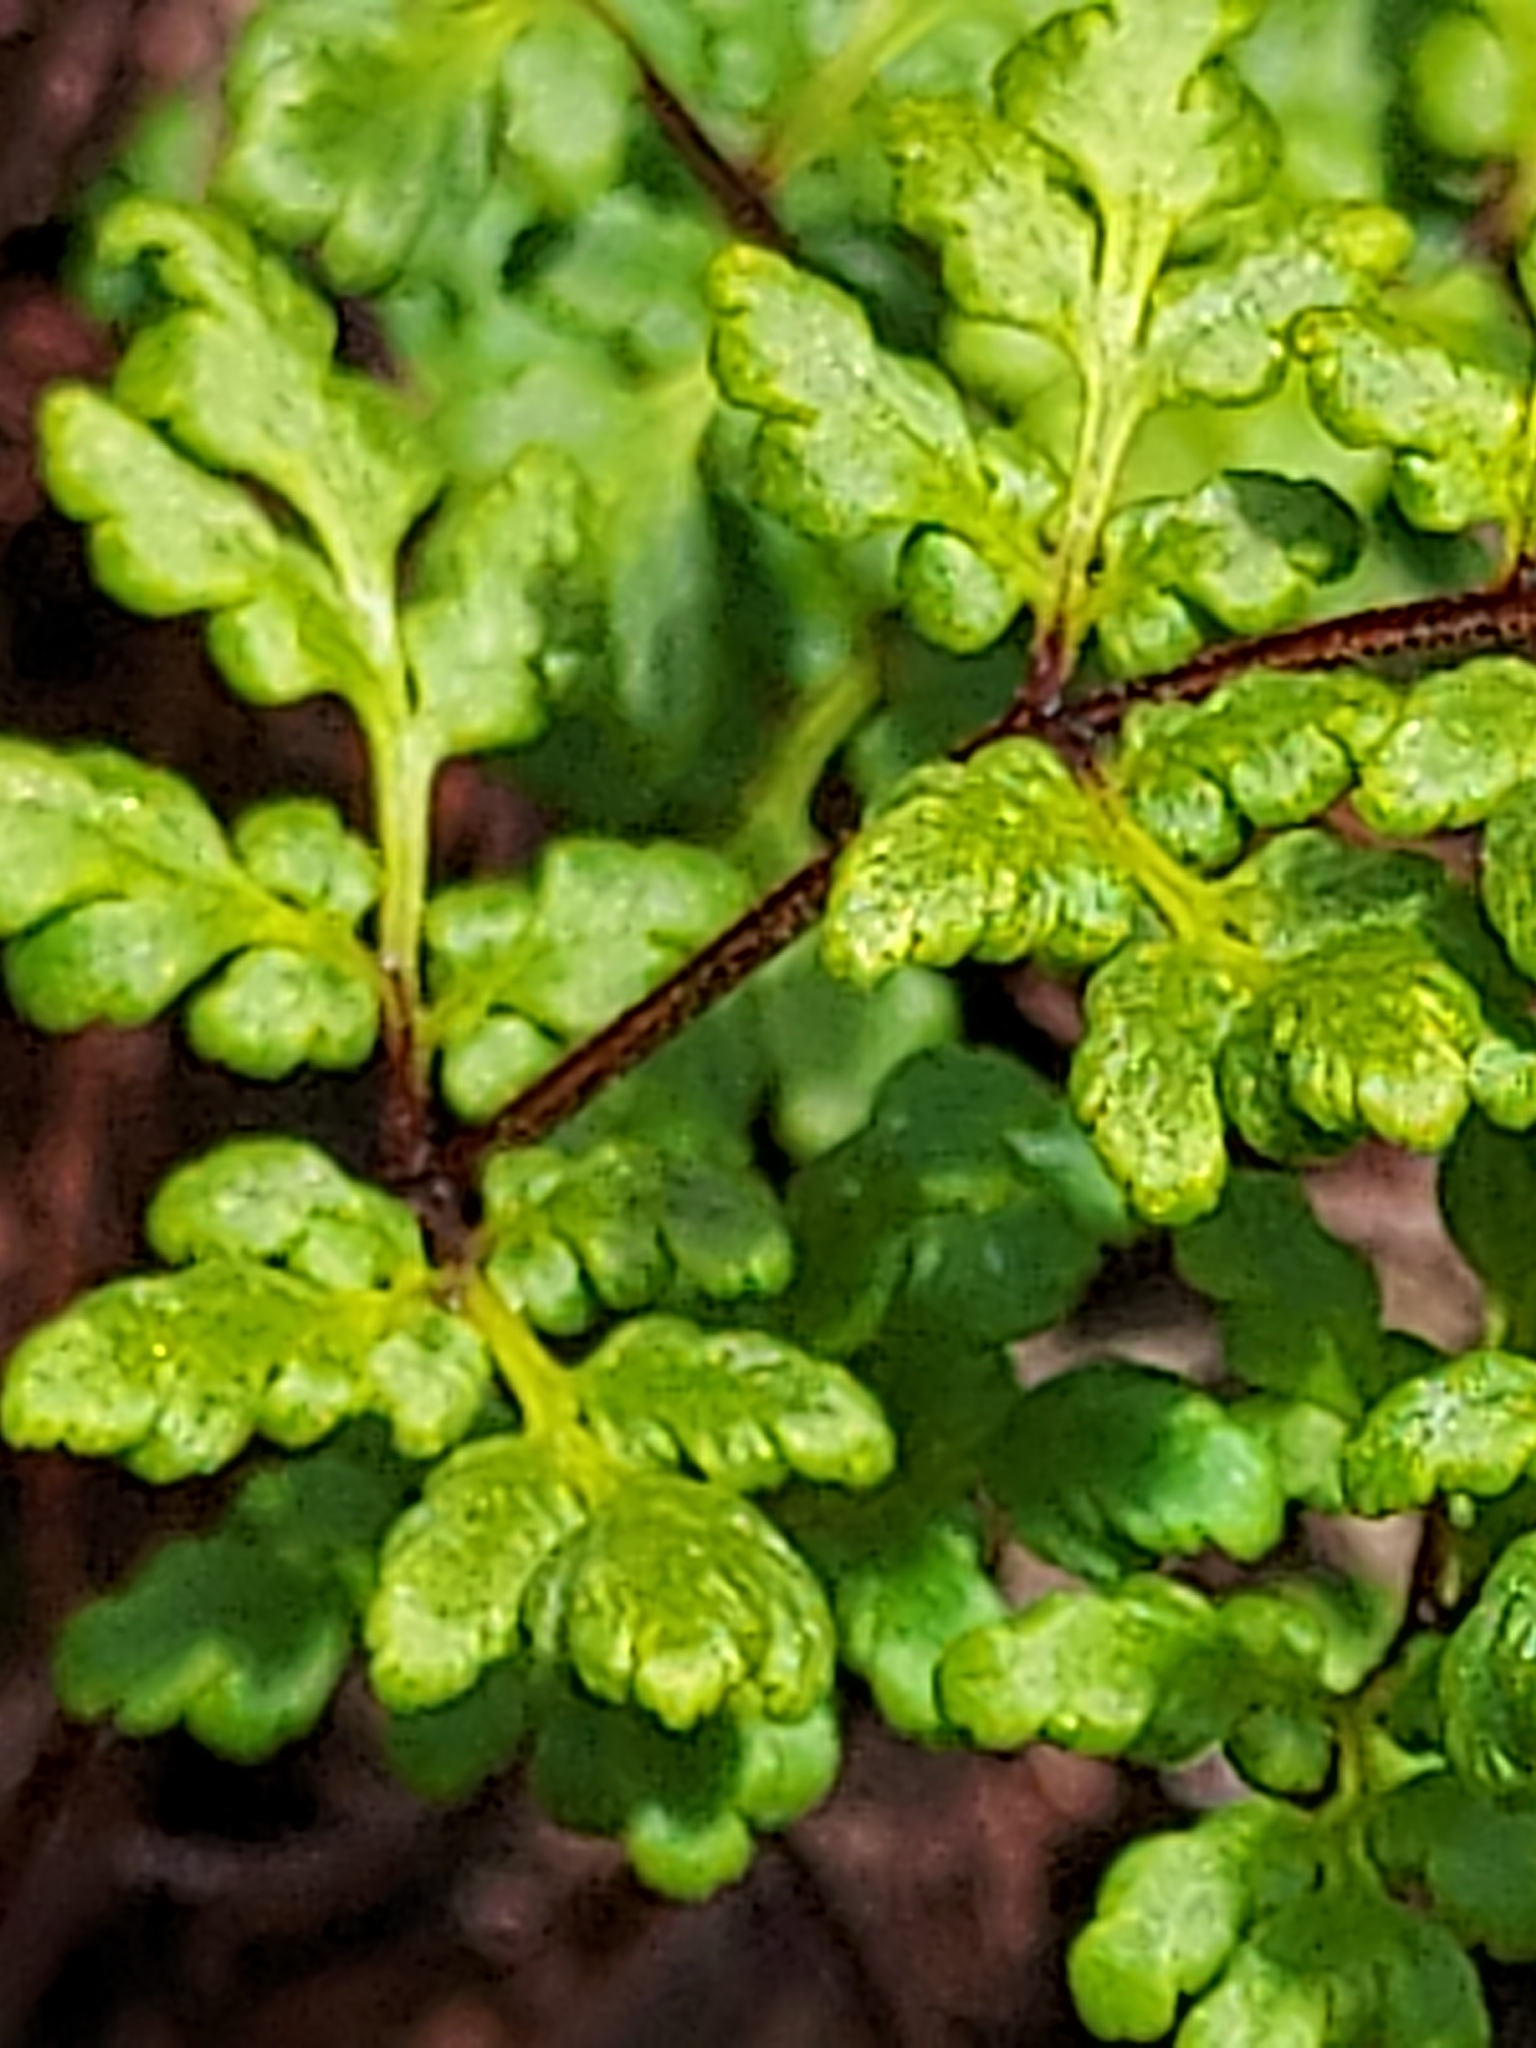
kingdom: Plantae
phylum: Tracheophyta
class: Polypodiopsida
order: Polypodiales
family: Pteridaceae
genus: Cheilanthes
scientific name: Cheilanthes sieberi
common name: Mulga fern
